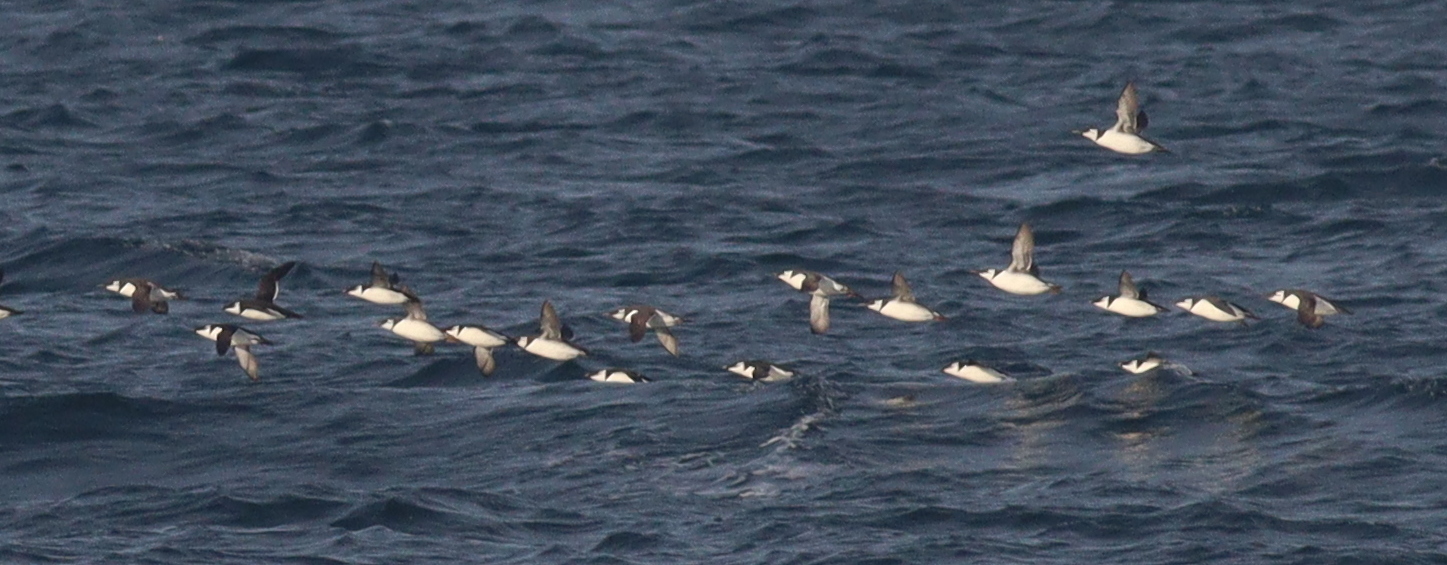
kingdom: Animalia
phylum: Chordata
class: Aves
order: Charadriiformes
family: Alcidae
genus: Alca
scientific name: Alca torda
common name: Razorbill
